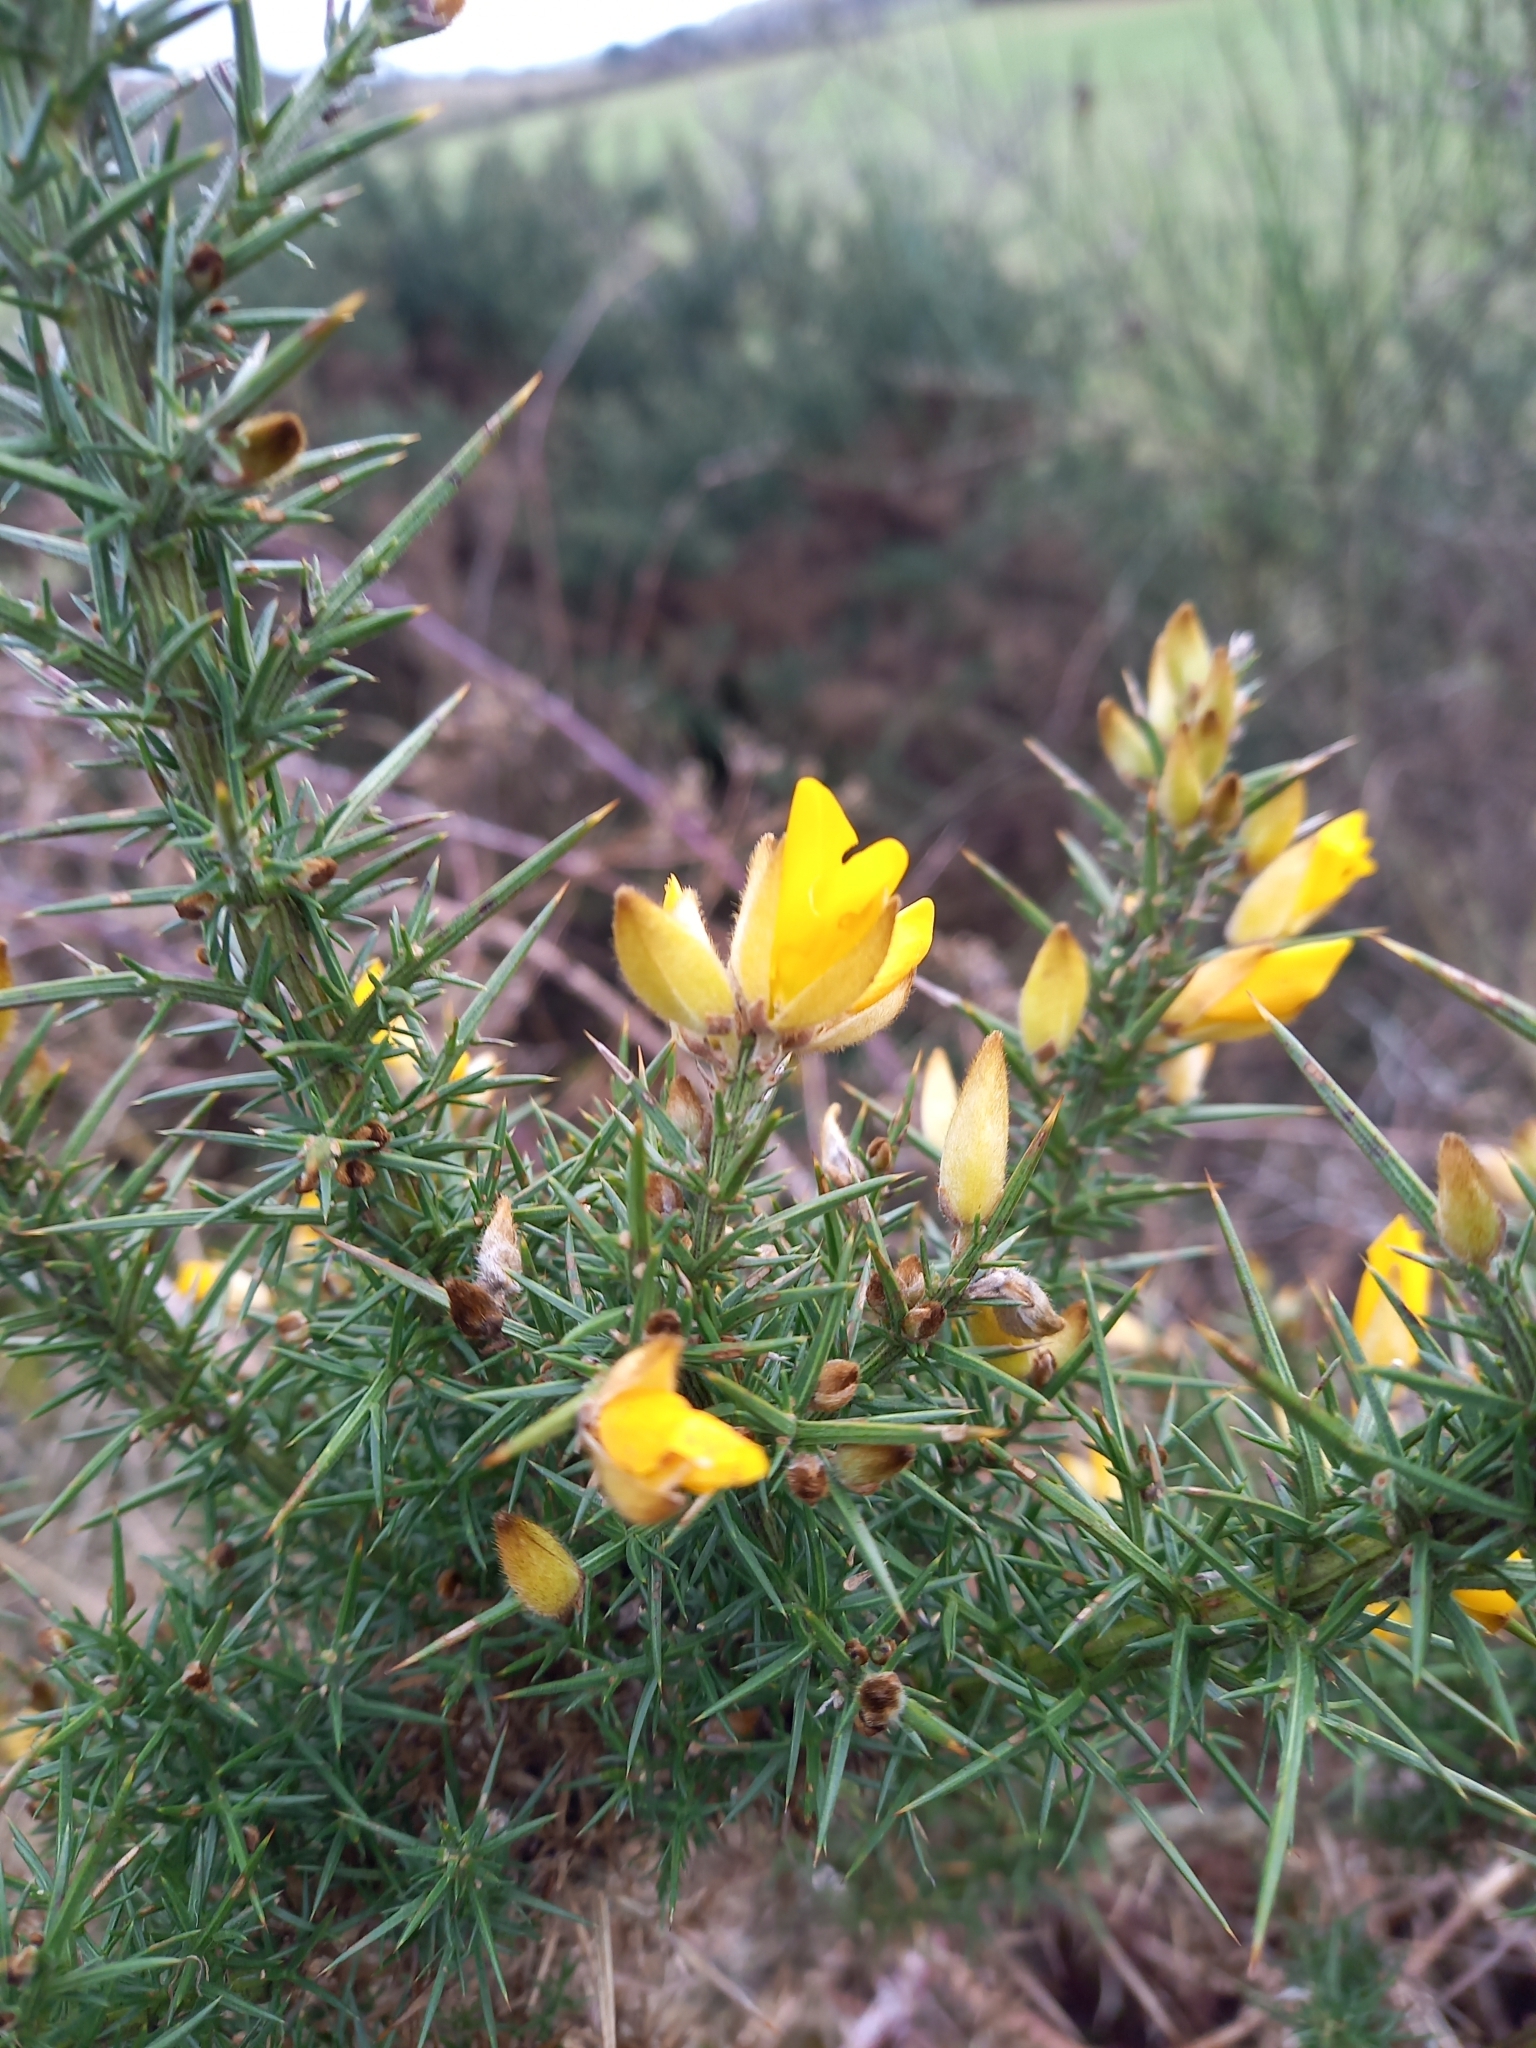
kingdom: Plantae
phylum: Tracheophyta
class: Magnoliopsida
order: Fabales
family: Fabaceae
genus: Ulex
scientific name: Ulex europaeus
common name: Common gorse
